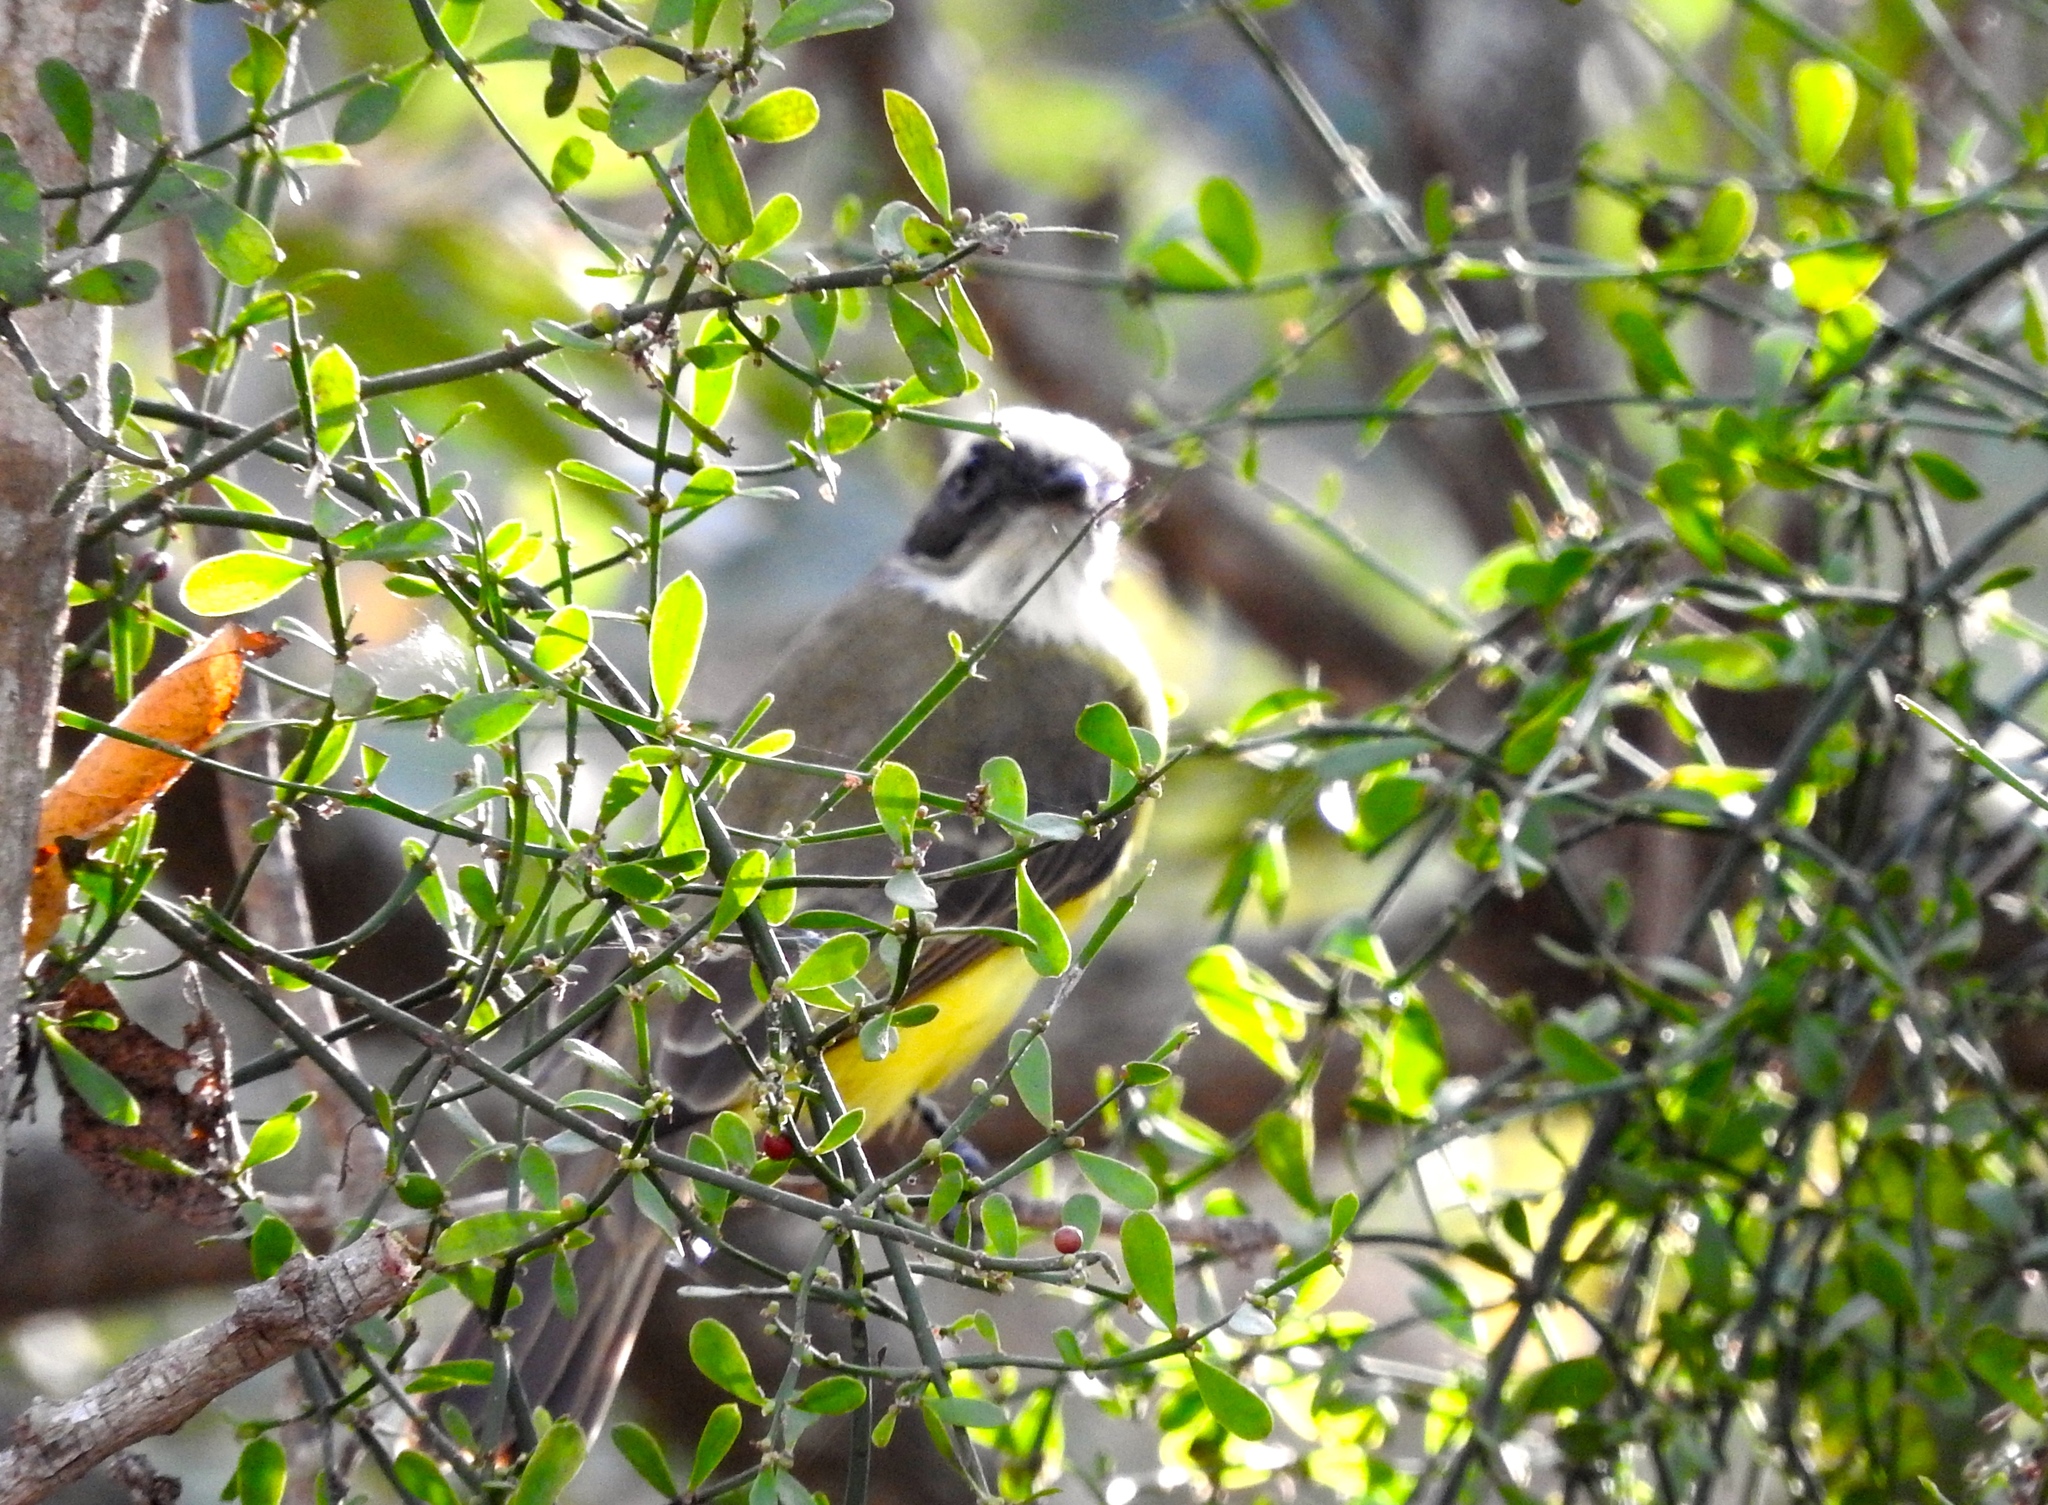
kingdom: Animalia
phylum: Chordata
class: Aves
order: Passeriformes
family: Tyrannidae
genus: Myiozetetes
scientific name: Myiozetetes similis
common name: Social flycatcher
